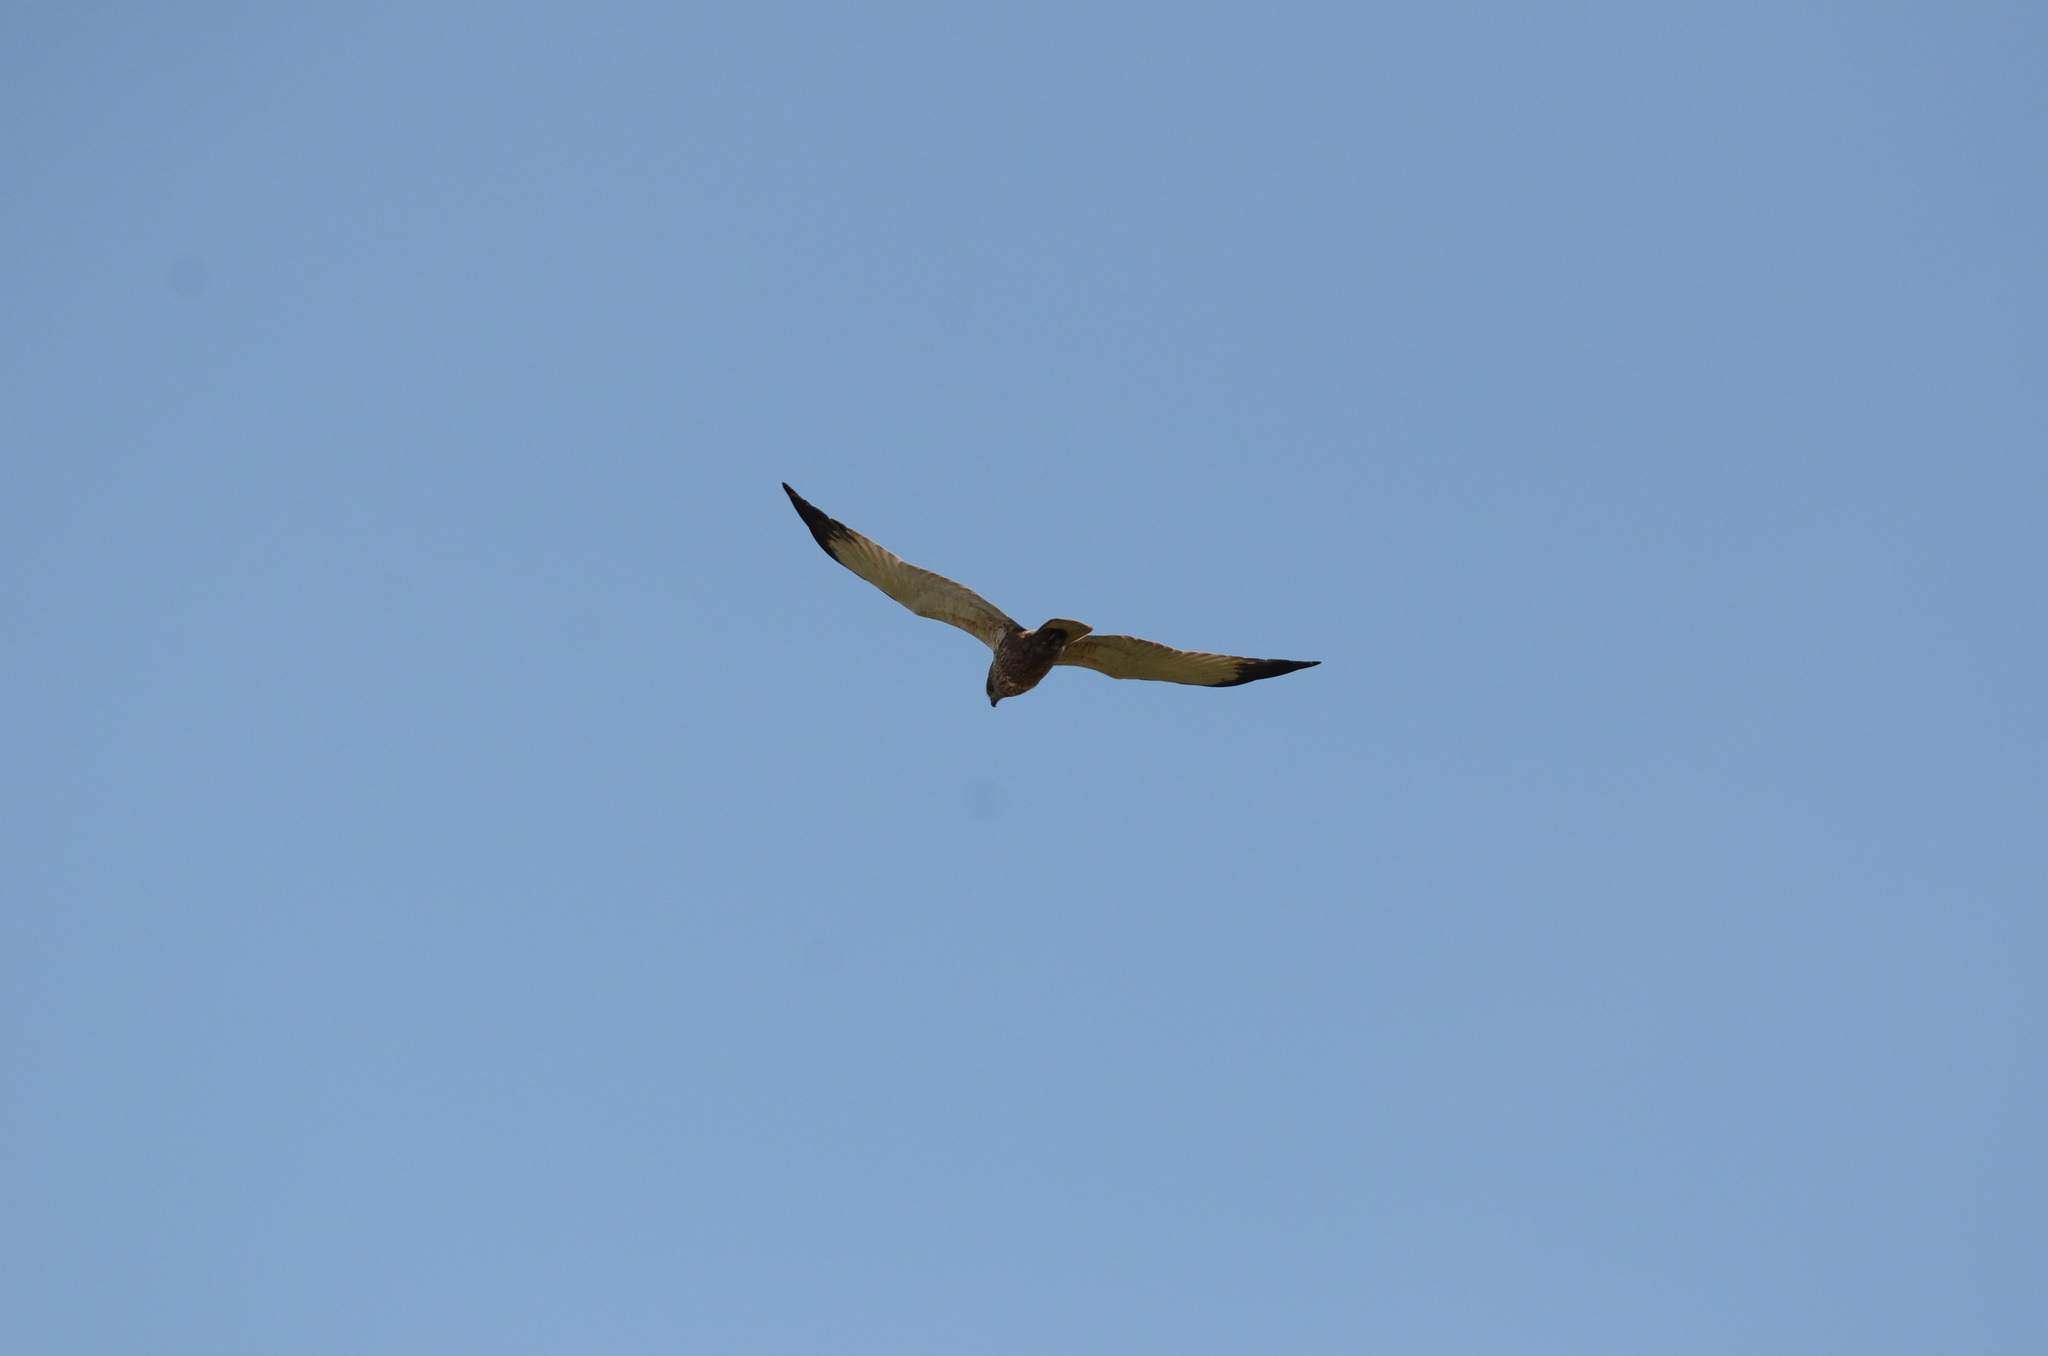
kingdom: Animalia
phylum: Chordata
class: Aves
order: Accipitriformes
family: Accipitridae
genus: Circus
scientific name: Circus aeruginosus
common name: Western marsh harrier
